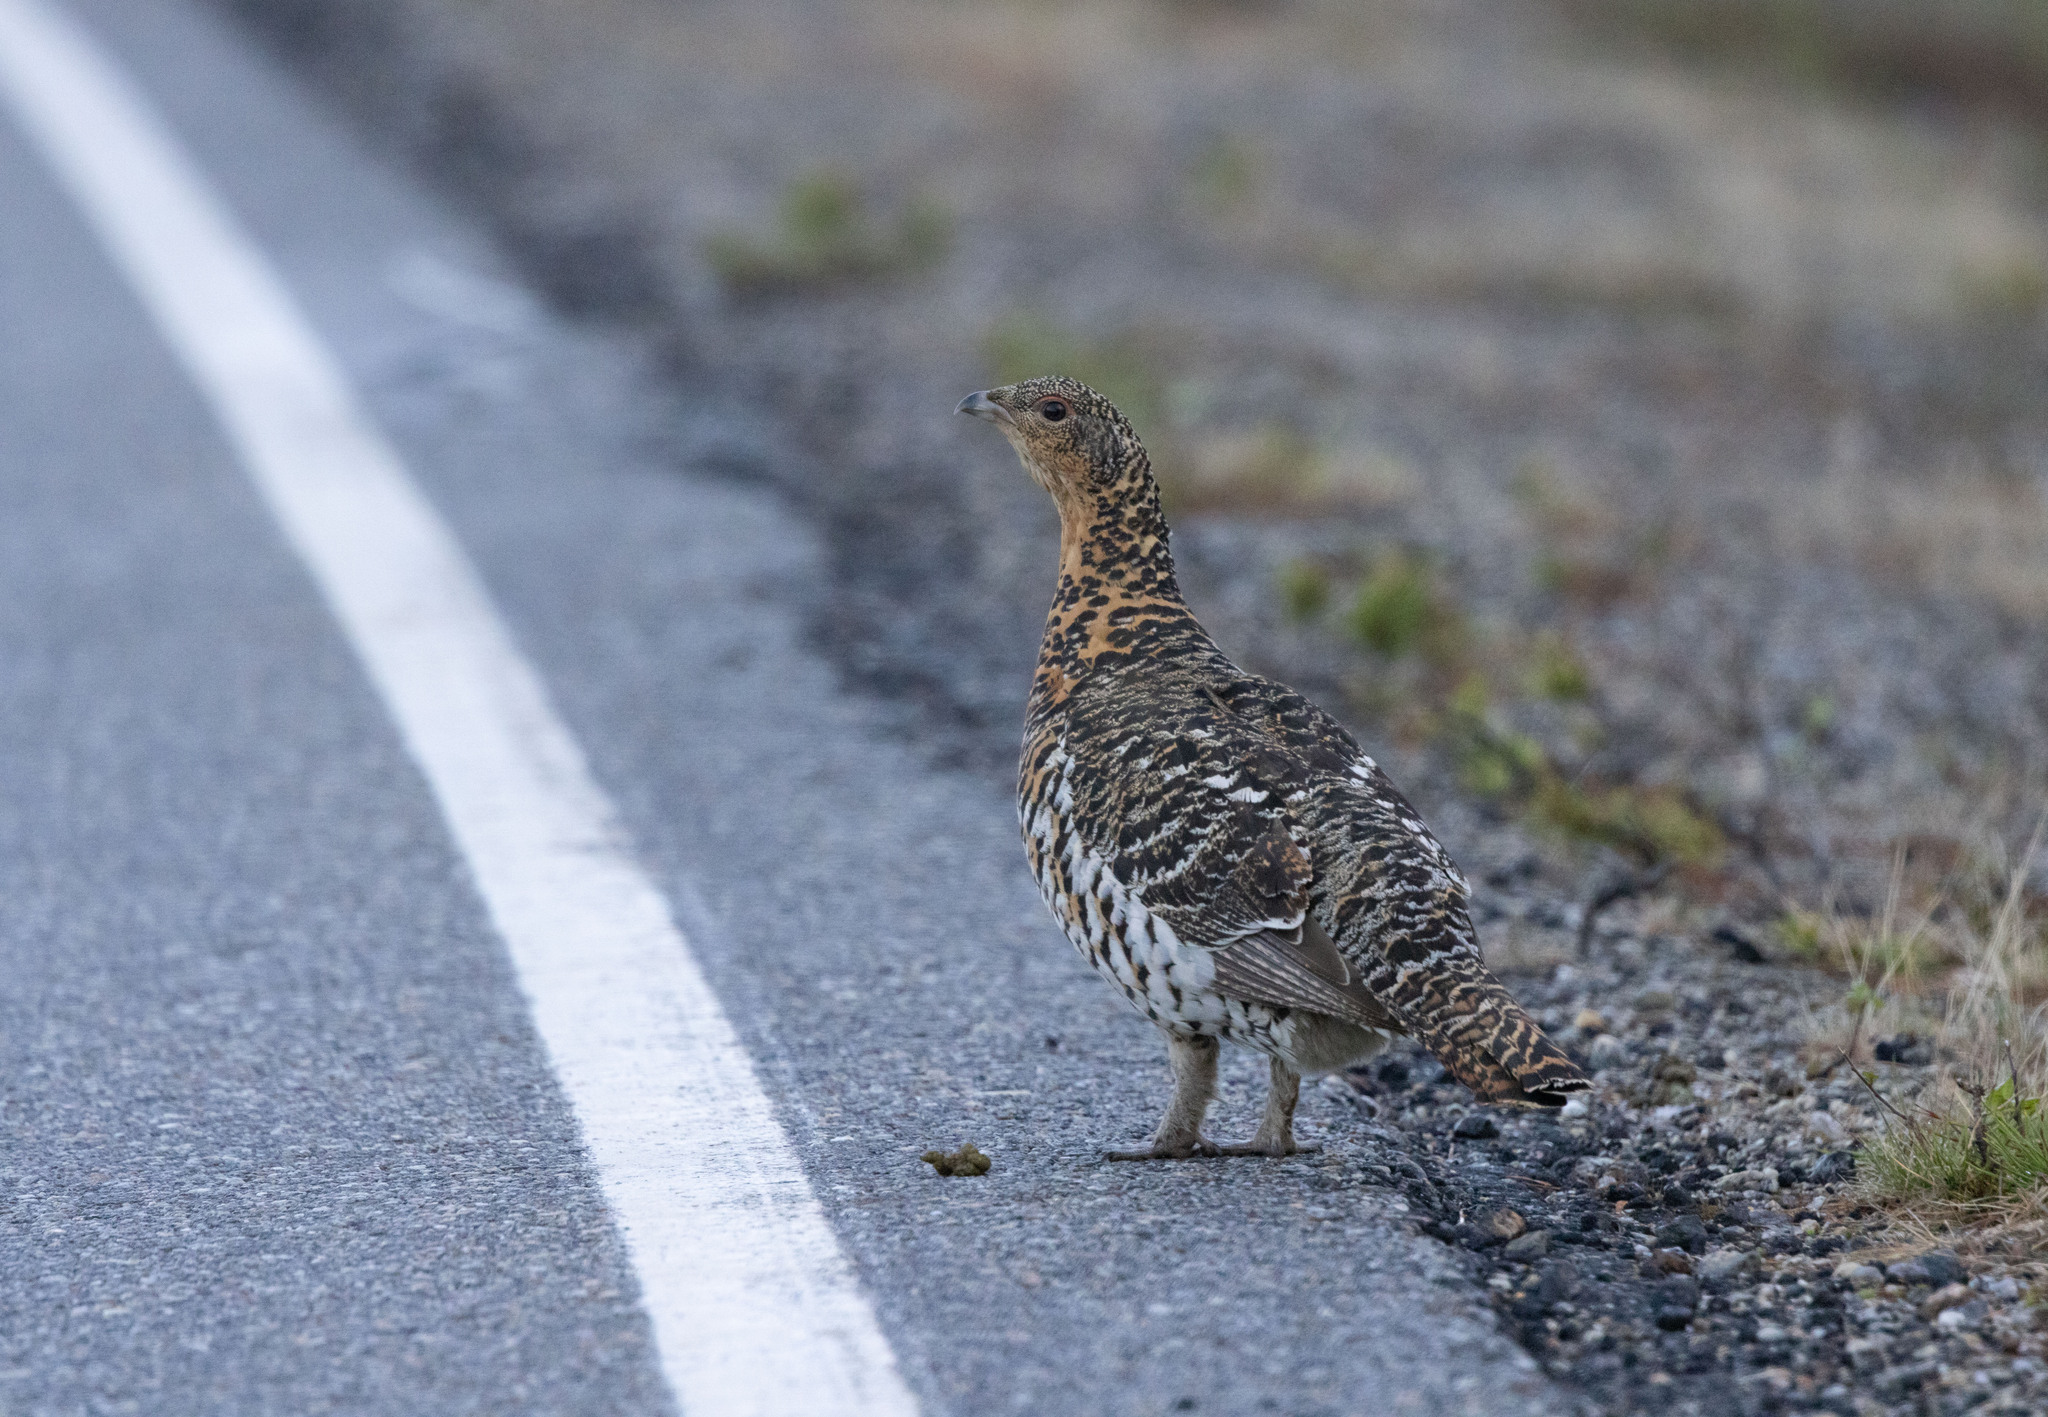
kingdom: Animalia
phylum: Chordata
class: Aves
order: Galliformes
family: Phasianidae
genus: Tetrao
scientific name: Tetrao urogallus
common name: Western capercaillie
